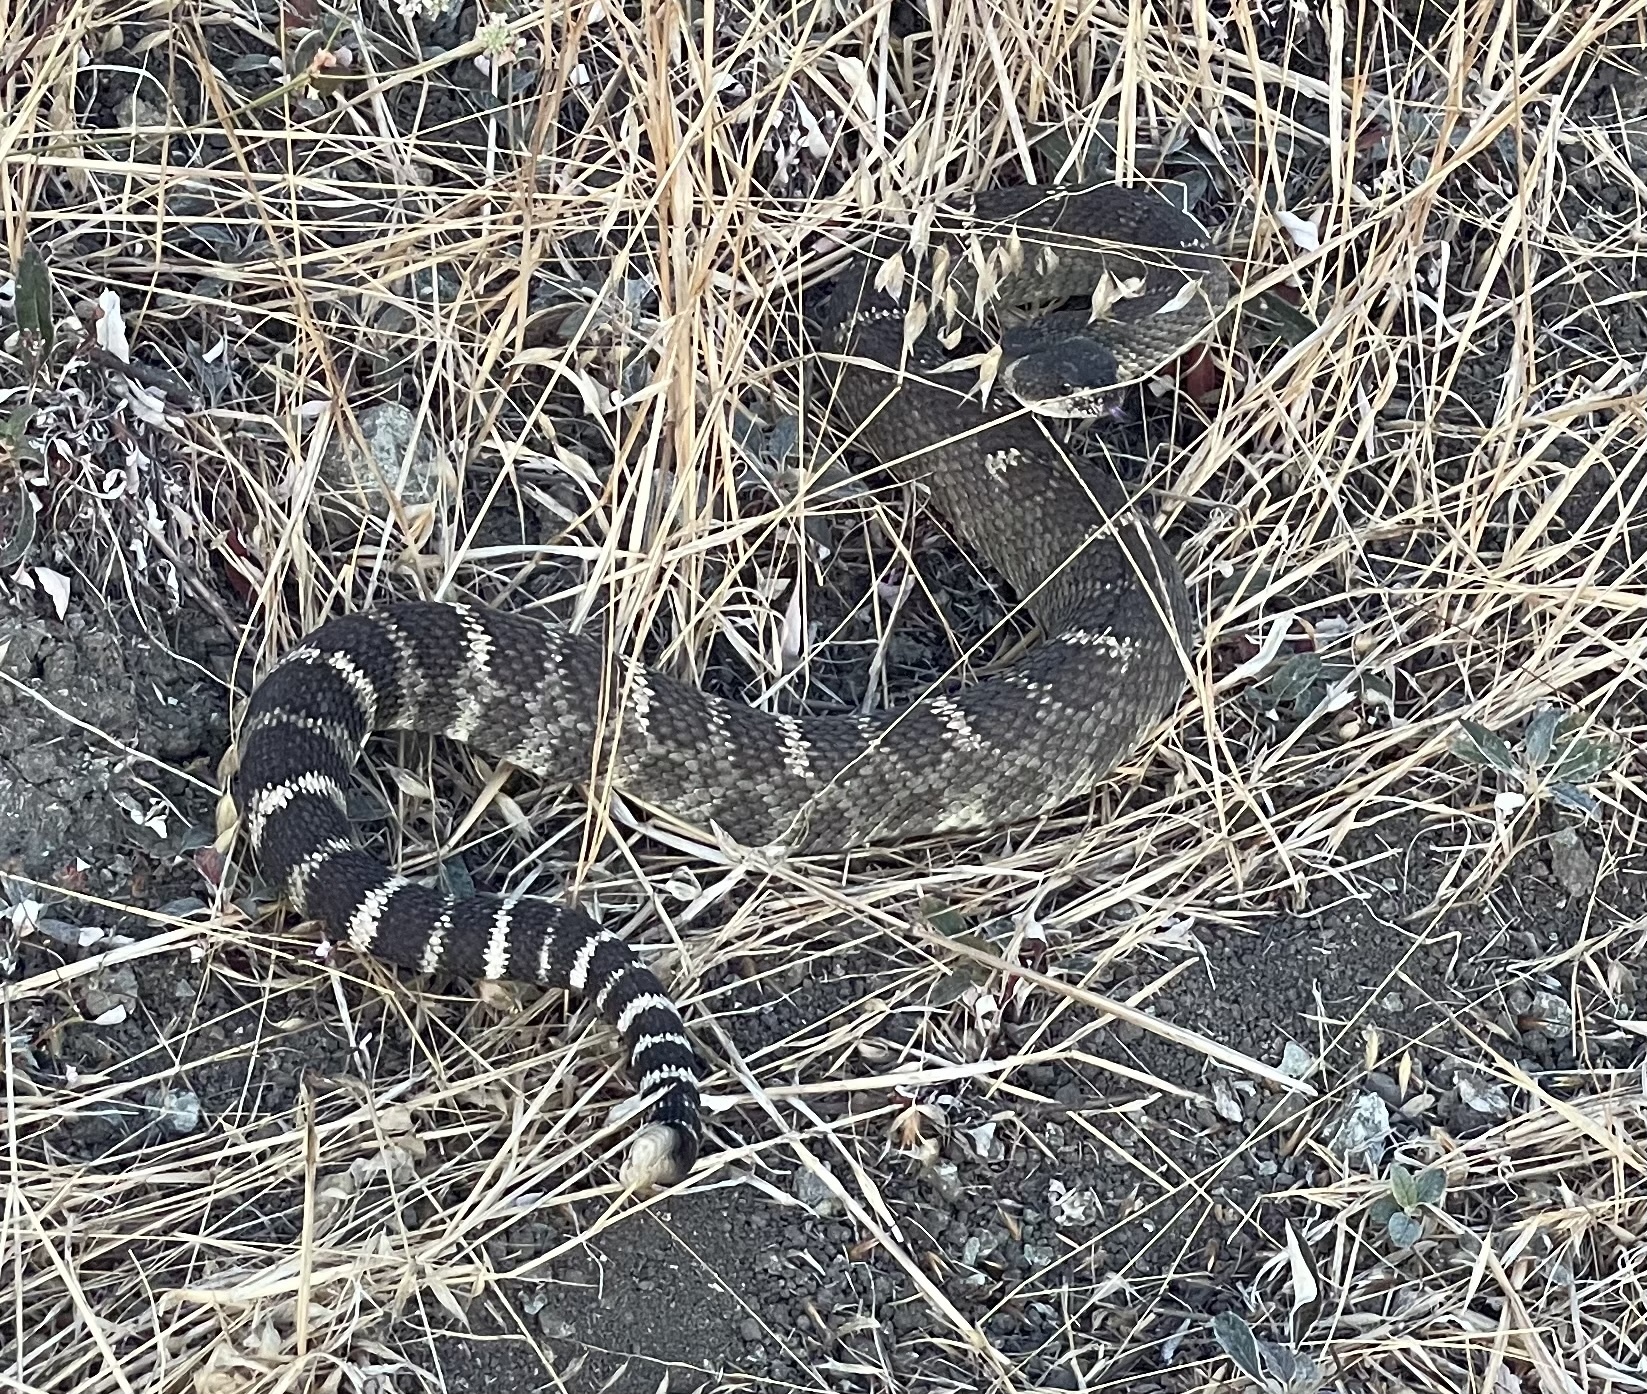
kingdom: Animalia
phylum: Chordata
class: Squamata
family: Viperidae
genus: Crotalus
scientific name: Crotalus oreganus
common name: Abyssus
